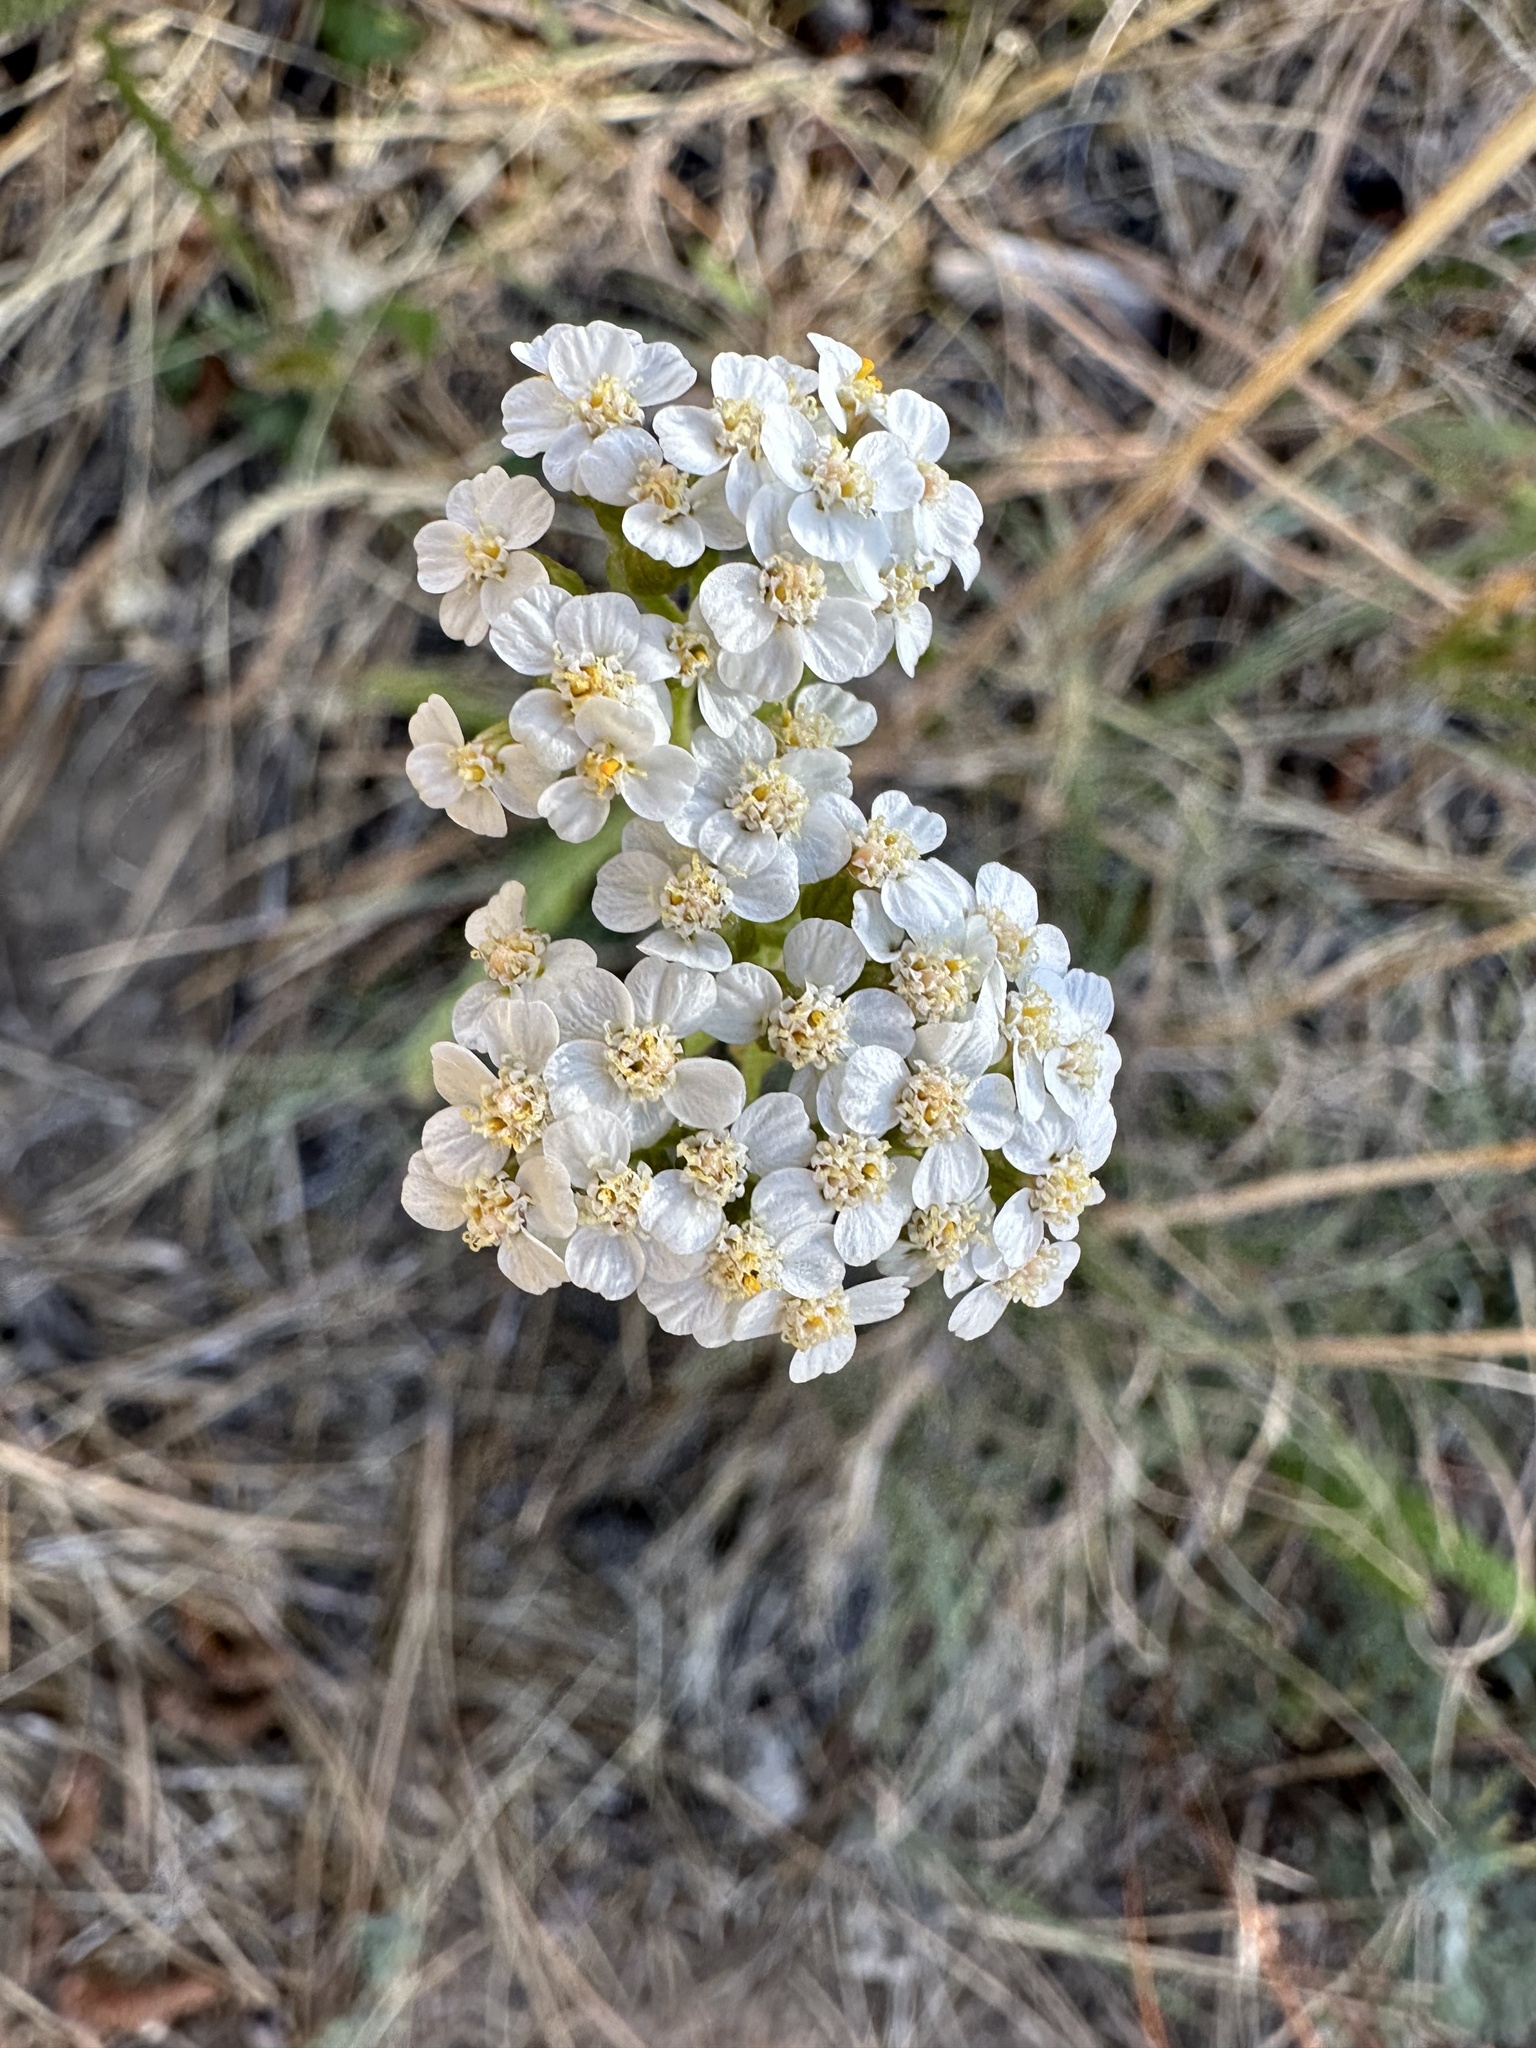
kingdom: Plantae
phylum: Tracheophyta
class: Magnoliopsida
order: Asterales
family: Asteraceae
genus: Achillea
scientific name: Achillea millefolium
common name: Yarrow
